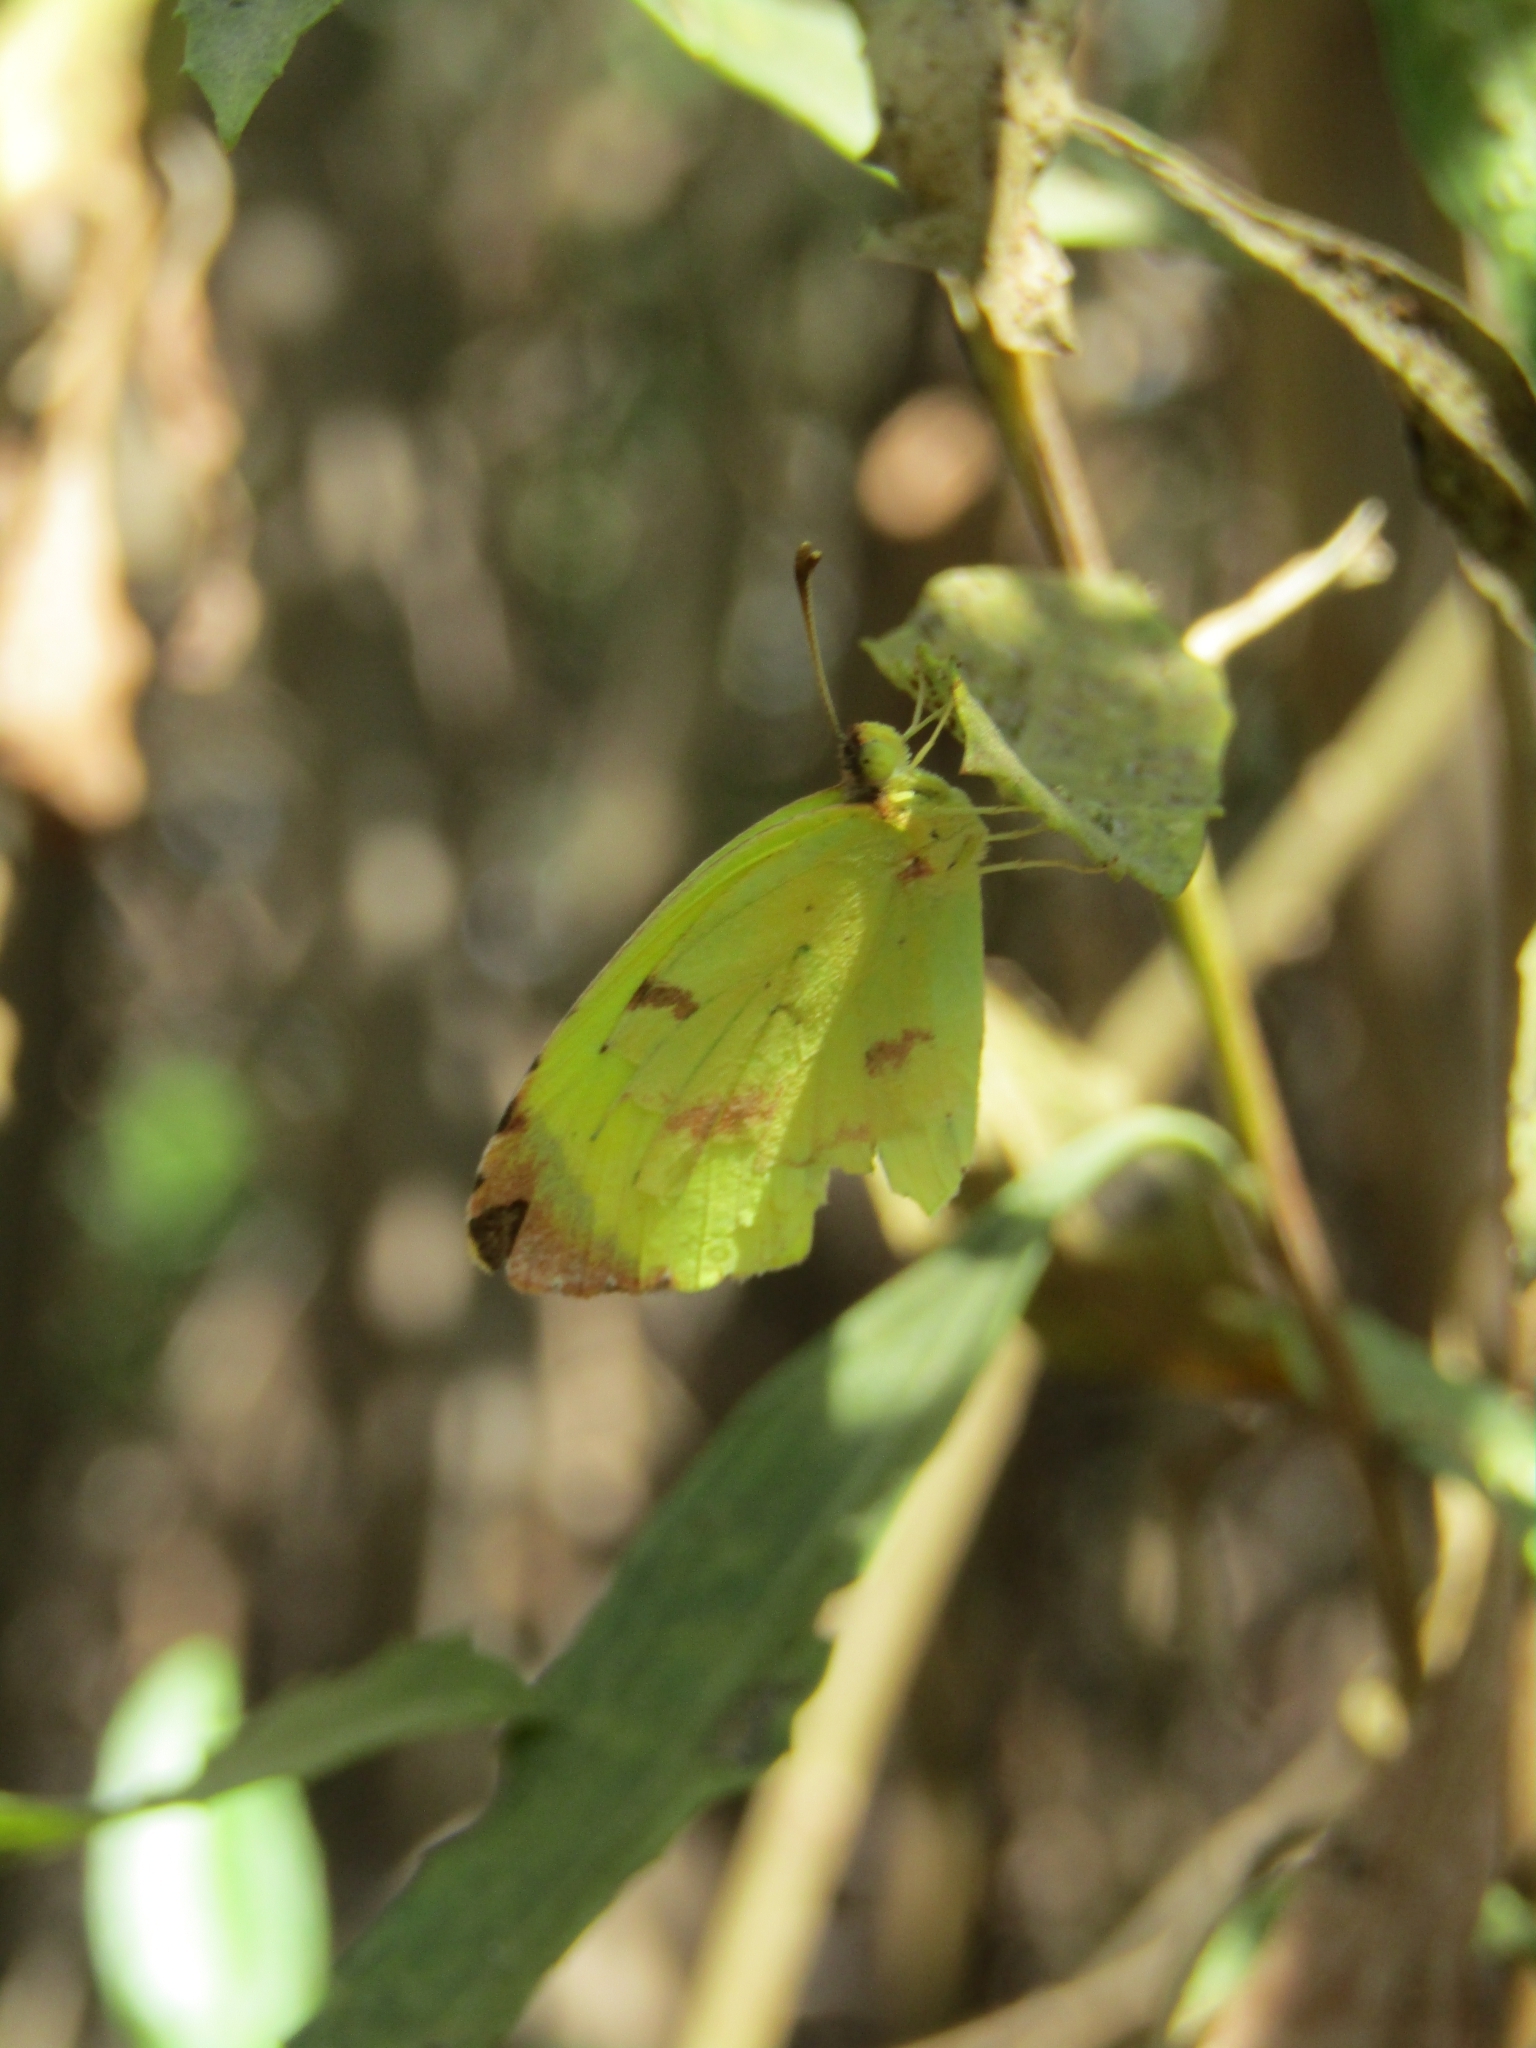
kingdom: Animalia
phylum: Arthropoda
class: Insecta
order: Lepidoptera
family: Pieridae
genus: Teriocolias
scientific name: Teriocolias
